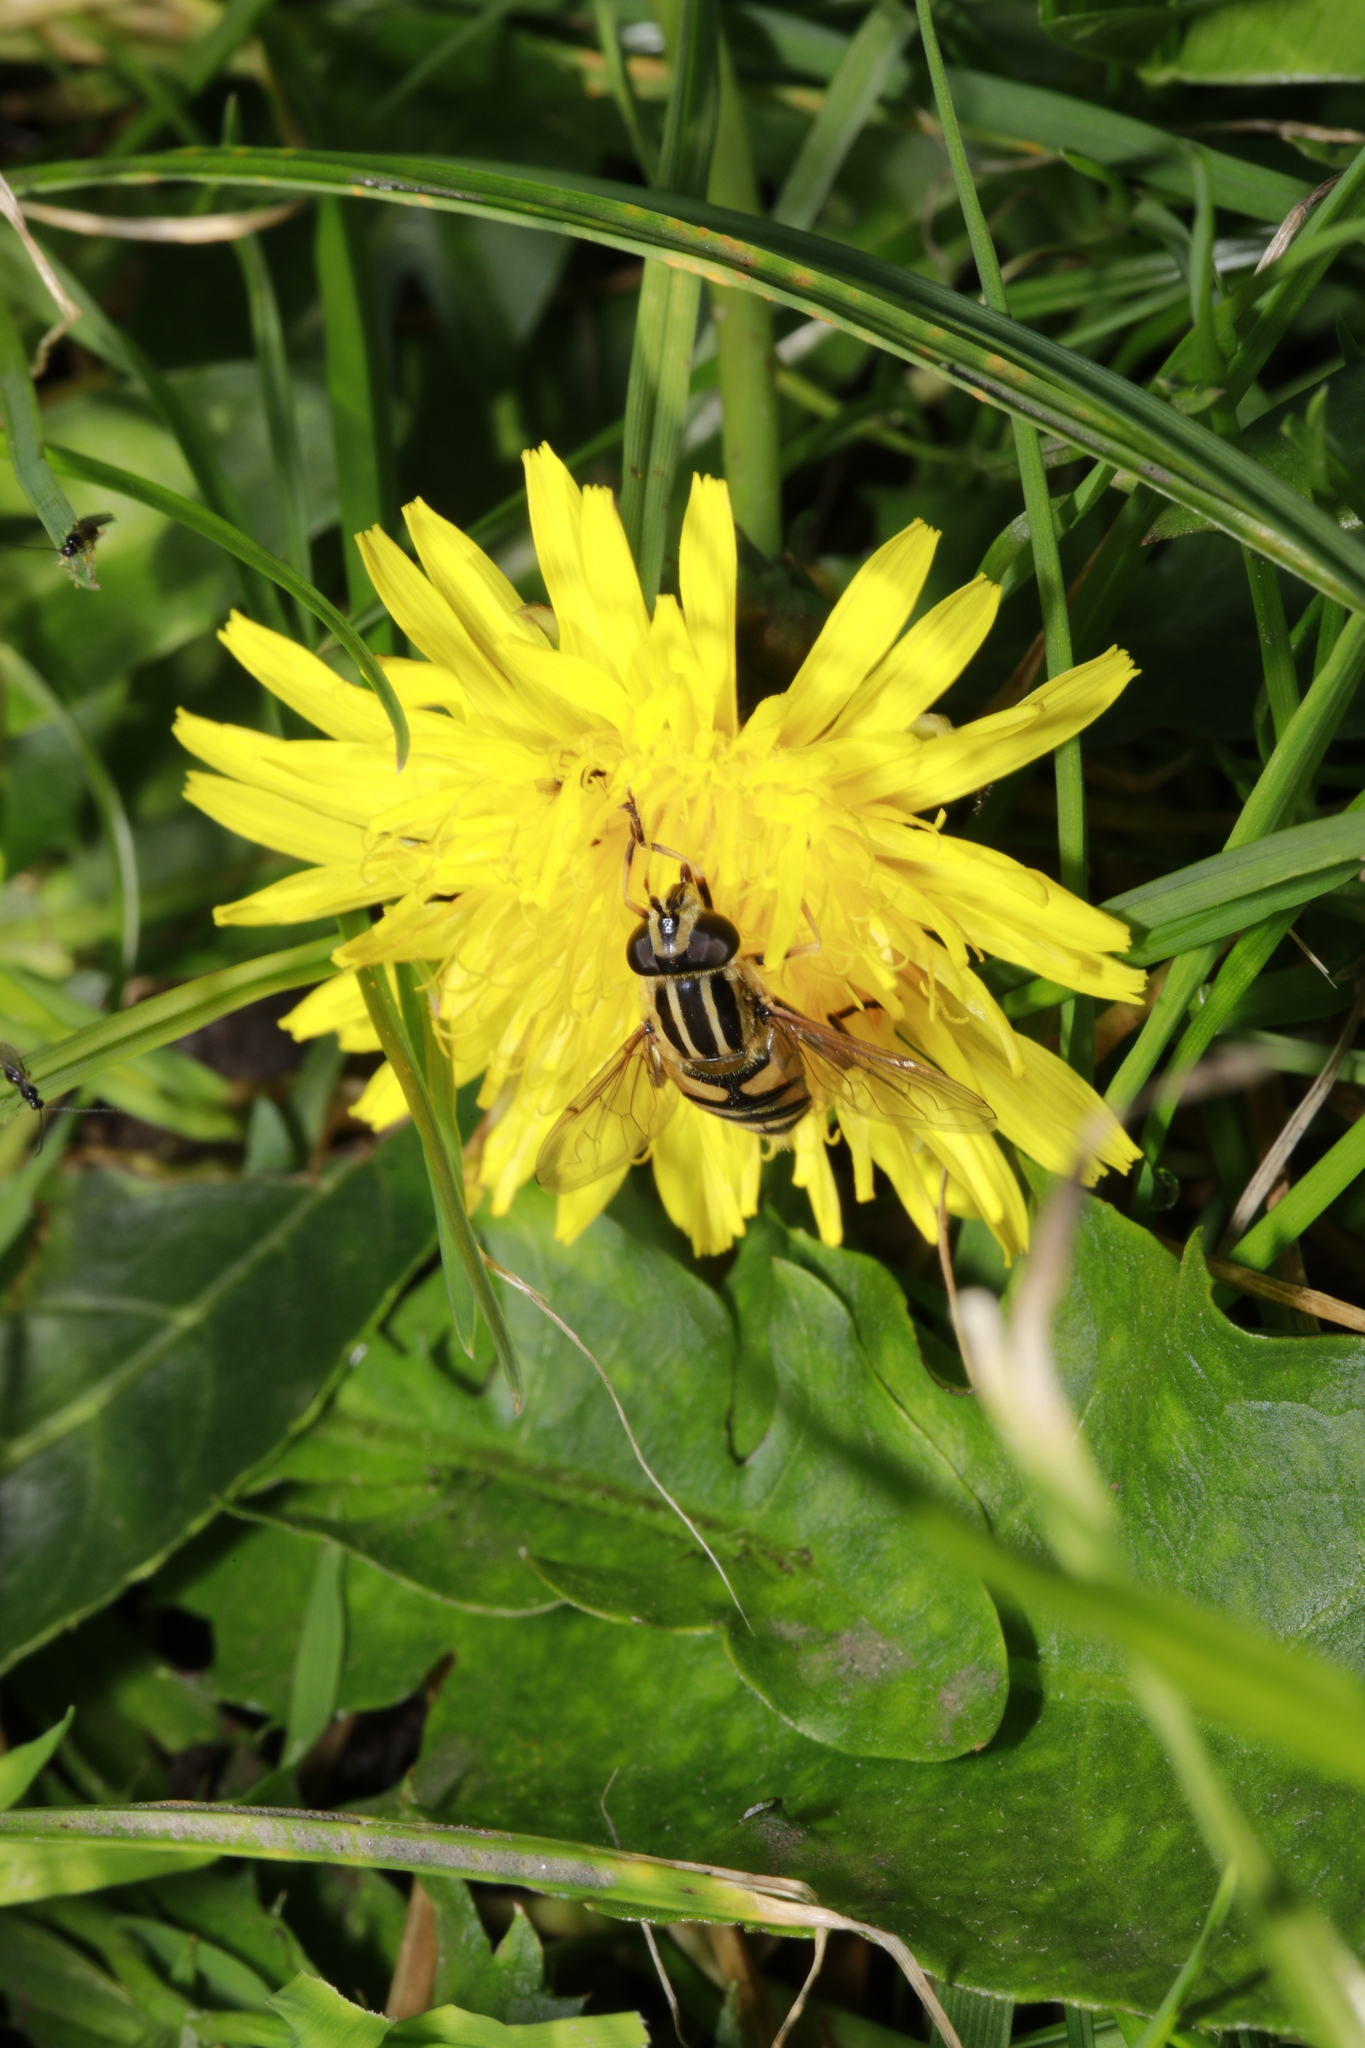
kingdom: Animalia
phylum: Arthropoda
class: Insecta
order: Diptera
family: Syrphidae
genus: Helophilus
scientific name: Helophilus pendulus
